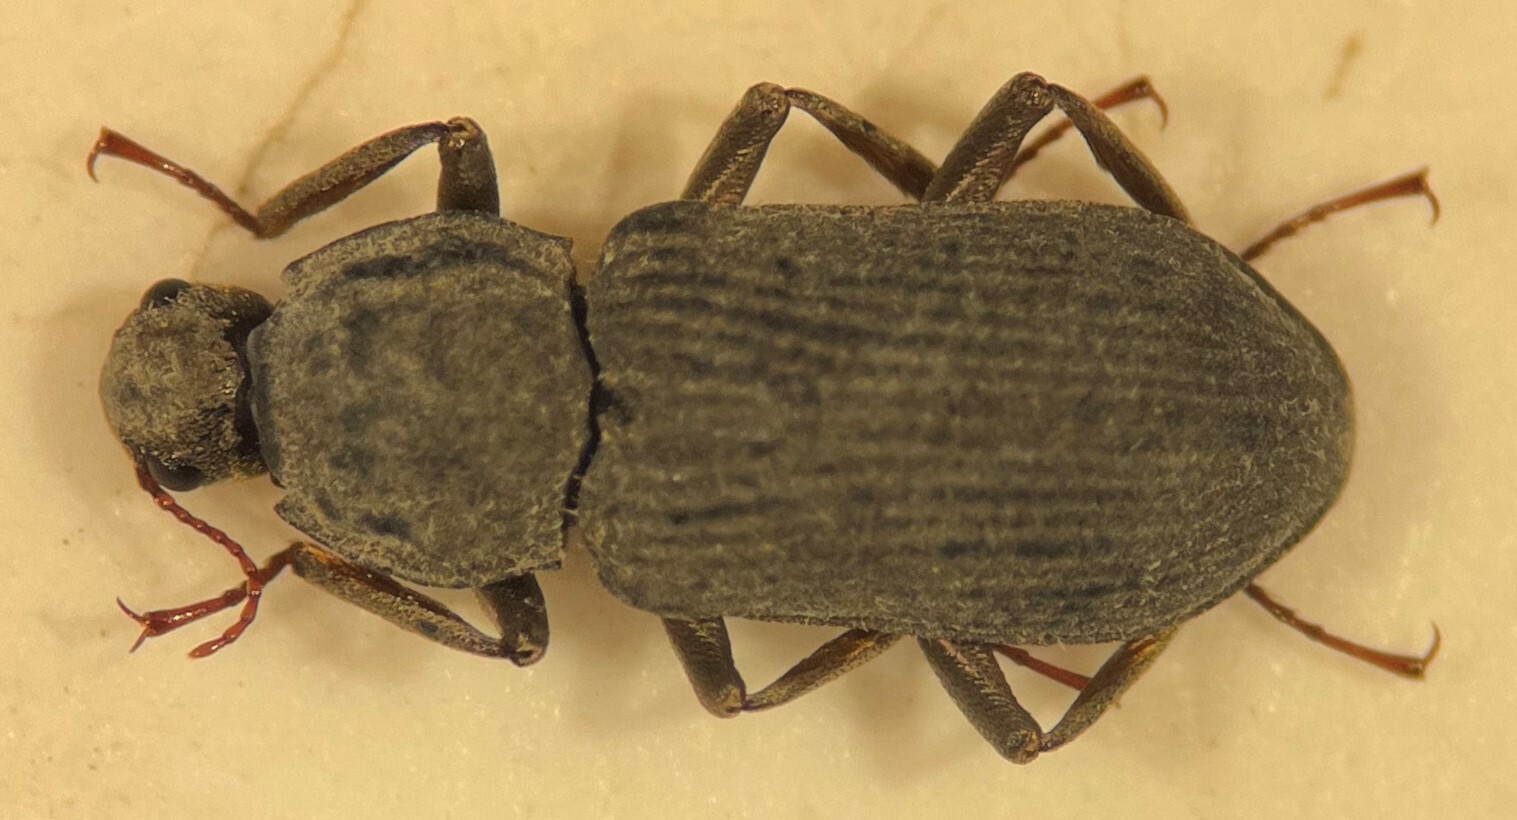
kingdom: Animalia
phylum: Arthropoda
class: Insecta
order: Coleoptera
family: Elmidae
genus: Macrelmis
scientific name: Macrelmis shepardi
